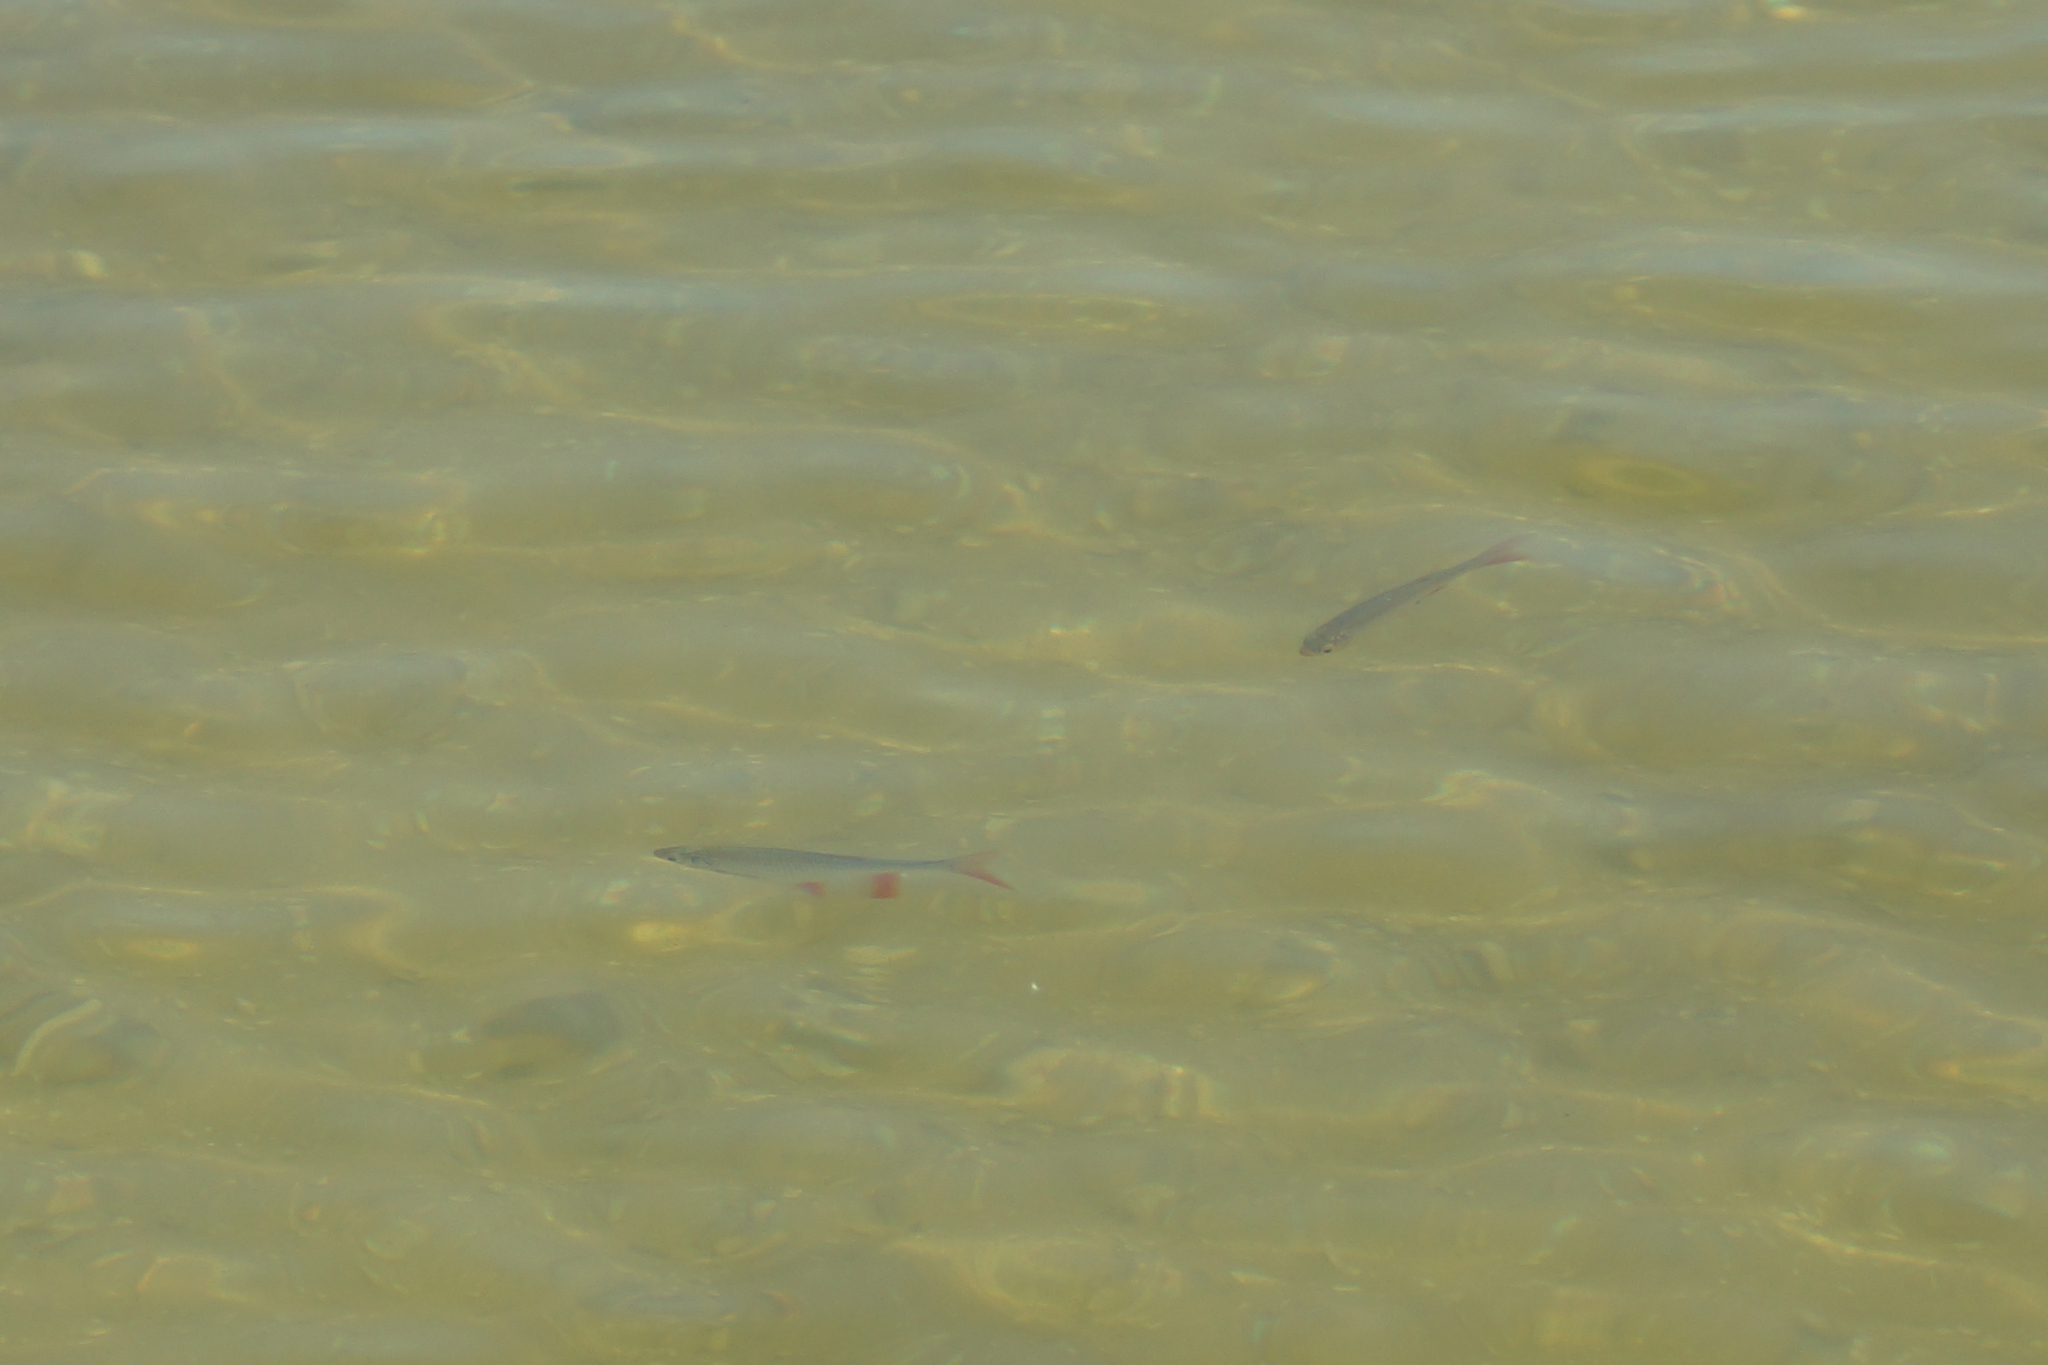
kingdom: Animalia
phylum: Chordata
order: Cypriniformes
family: Cyprinidae
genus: Scardinius
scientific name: Scardinius erythrophthalmus
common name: Rudd
